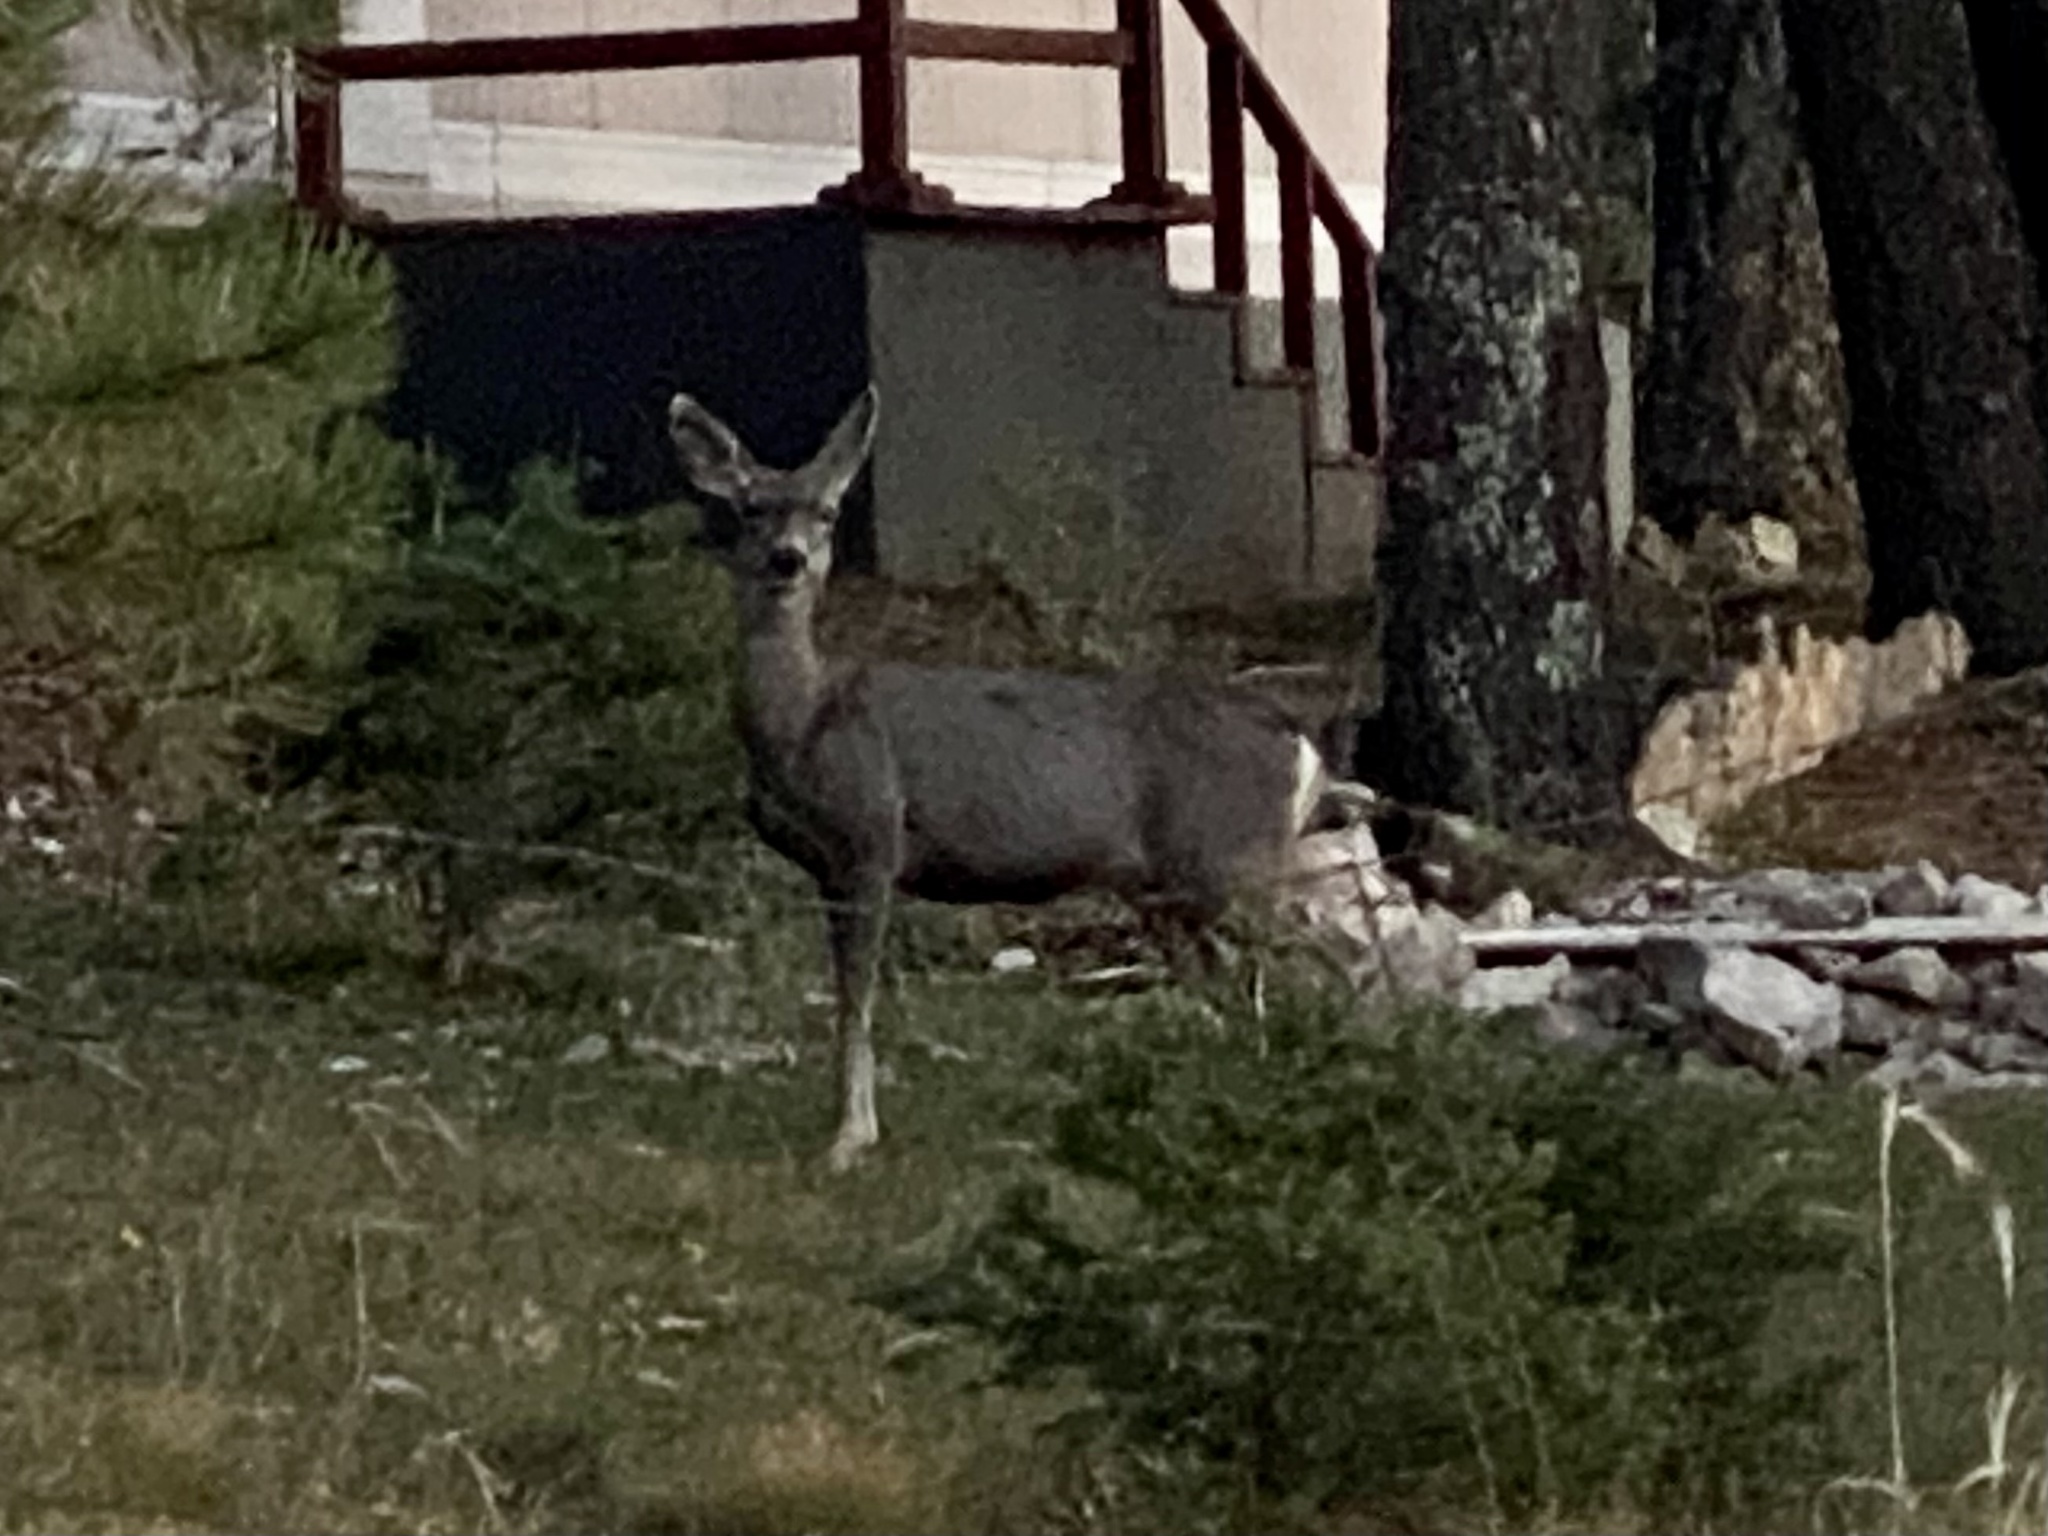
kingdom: Animalia
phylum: Chordata
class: Mammalia
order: Artiodactyla
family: Cervidae
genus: Odocoileus
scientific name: Odocoileus hemionus
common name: Mule deer
